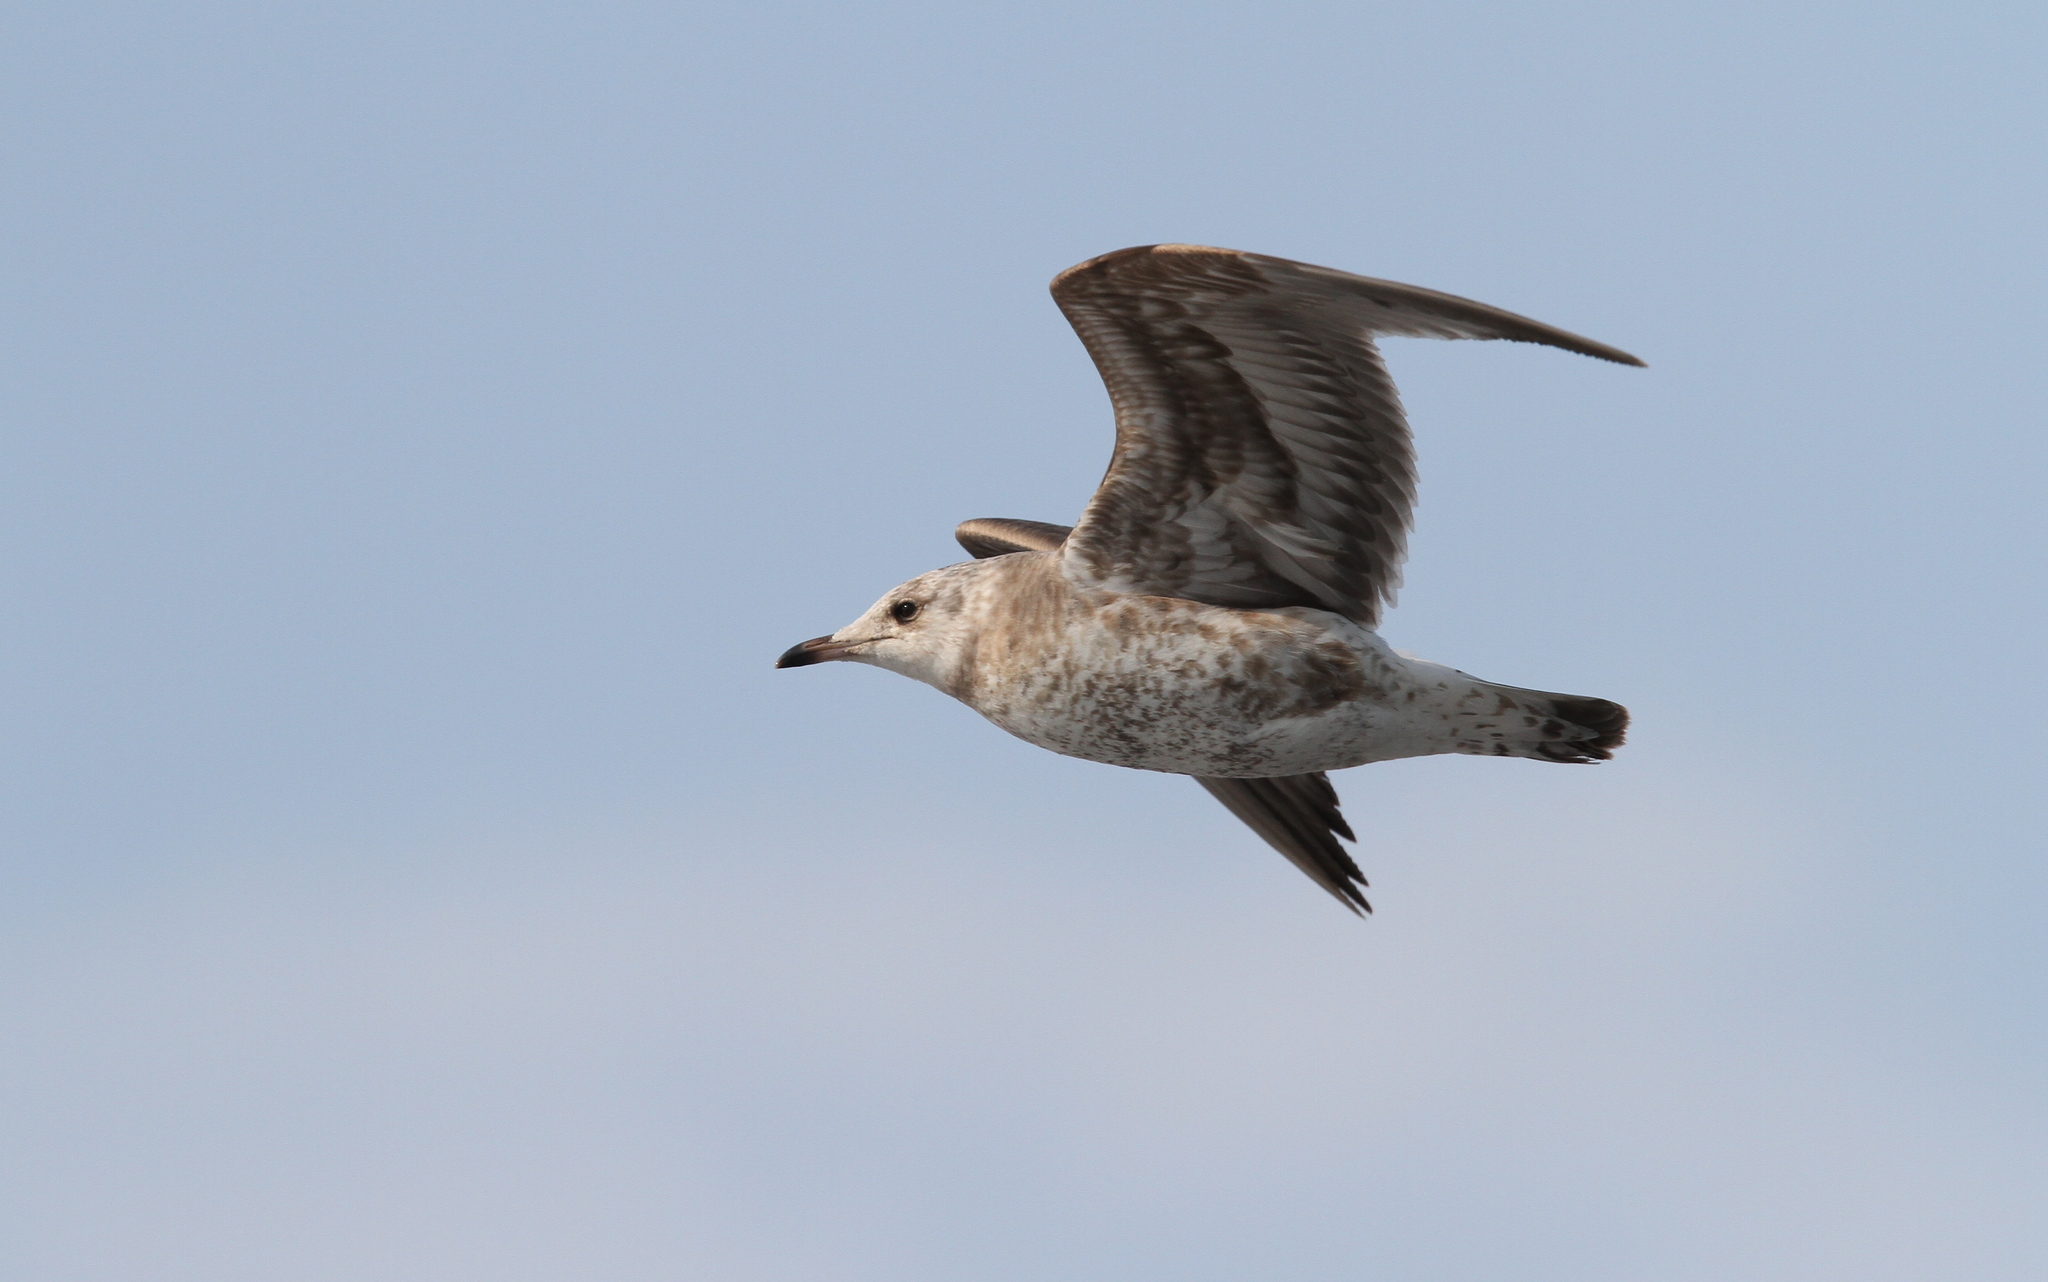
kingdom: Animalia
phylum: Chordata
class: Aves
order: Charadriiformes
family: Laridae
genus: Larus
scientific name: Larus canus
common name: Mew gull
